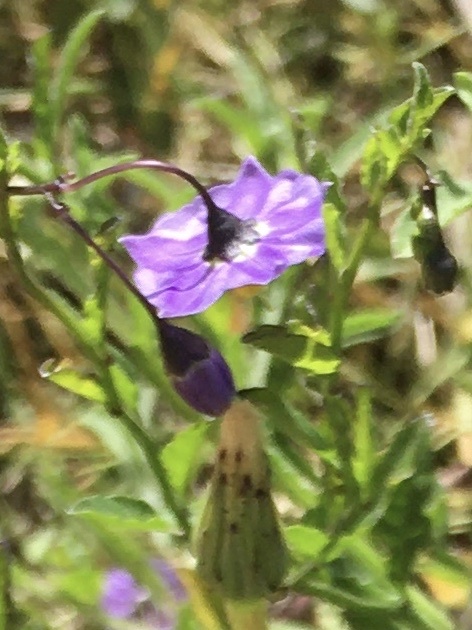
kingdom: Plantae
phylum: Tracheophyta
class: Magnoliopsida
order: Solanales
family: Solanaceae
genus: Solanum
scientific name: Solanum umbelliferum
